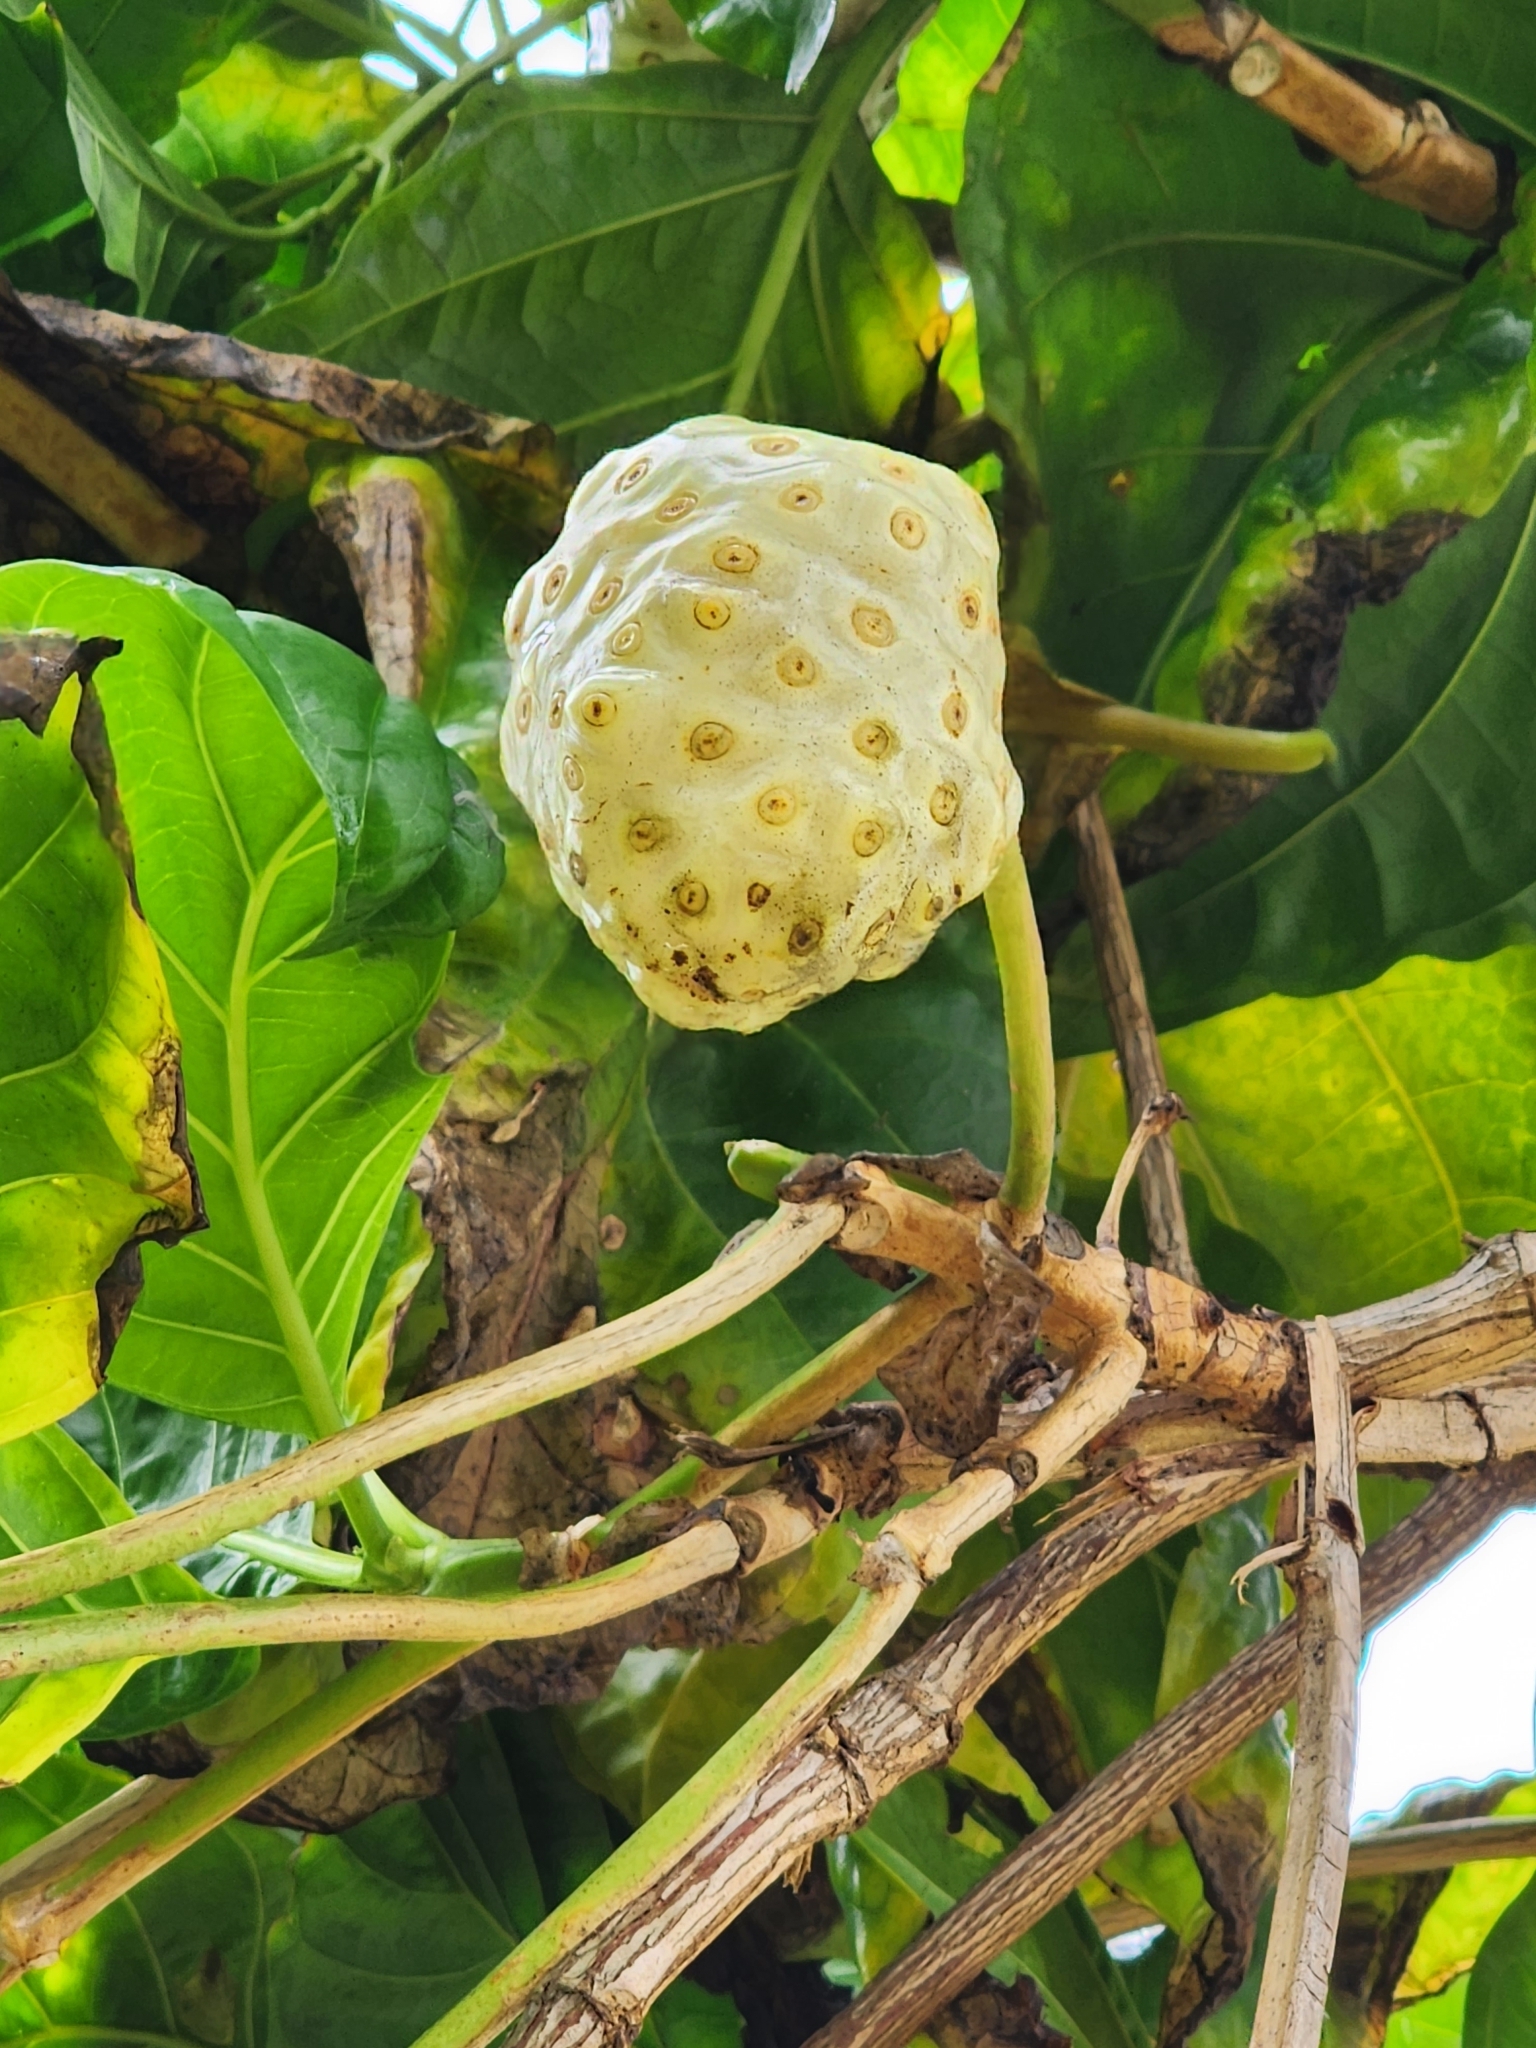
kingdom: Plantae
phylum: Tracheophyta
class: Magnoliopsida
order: Gentianales
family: Rubiaceae
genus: Morinda
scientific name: Morinda citrifolia
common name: Indian-mulberry
